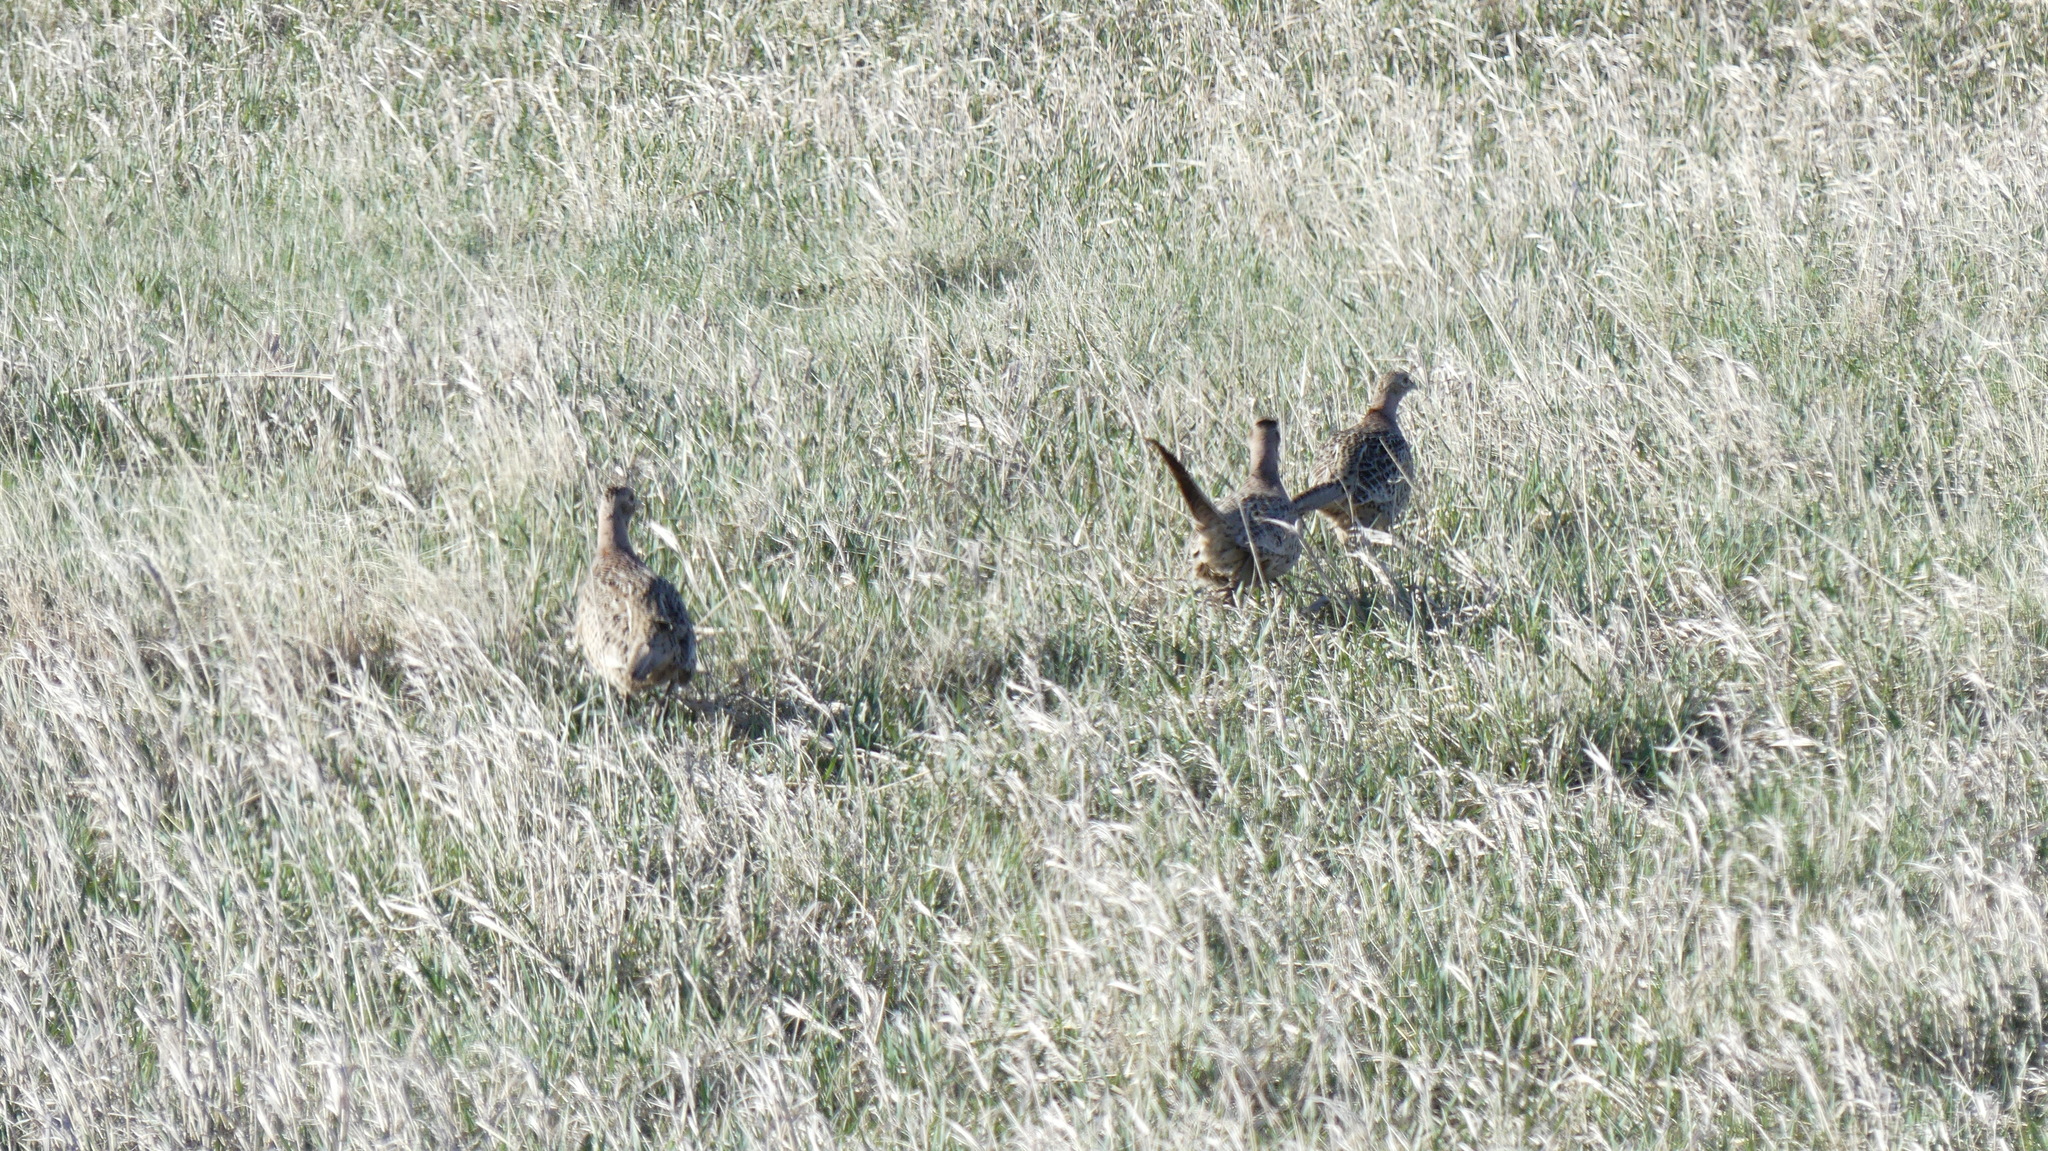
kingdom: Animalia
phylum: Chordata
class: Aves
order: Galliformes
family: Phasianidae
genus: Phasianus
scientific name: Phasianus colchicus
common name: Common pheasant
